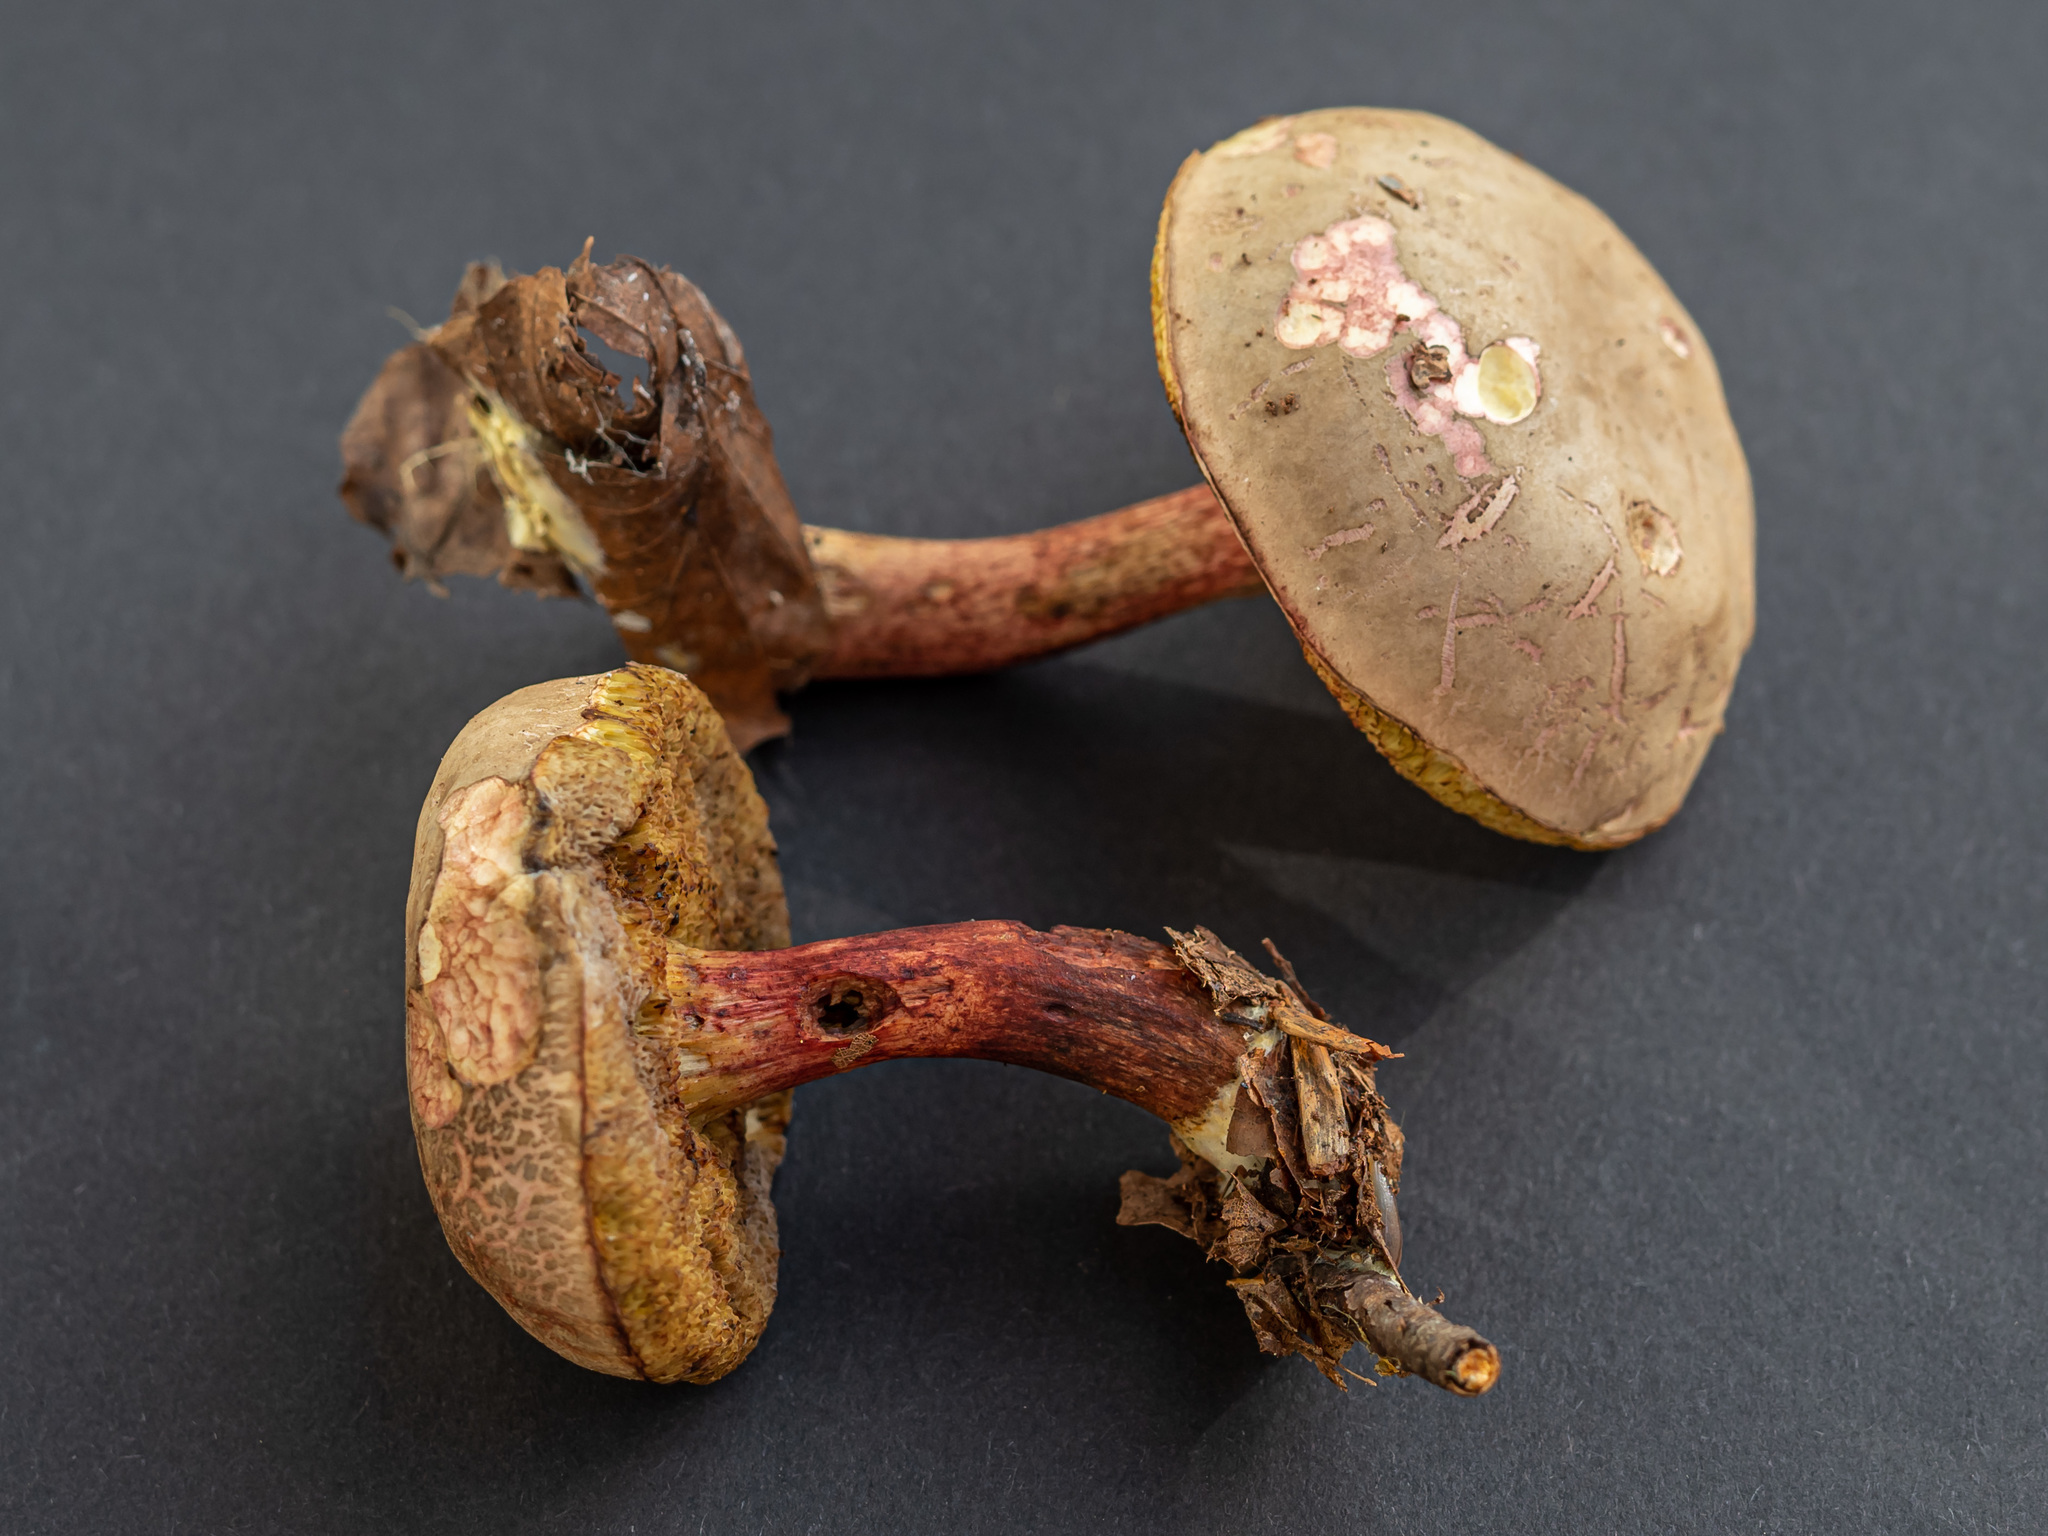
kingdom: Fungi
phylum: Basidiomycota
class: Agaricomycetes
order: Boletales
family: Boletaceae
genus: Xerocomellus
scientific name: Xerocomellus chrysenteron
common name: Red-cracking bolete
